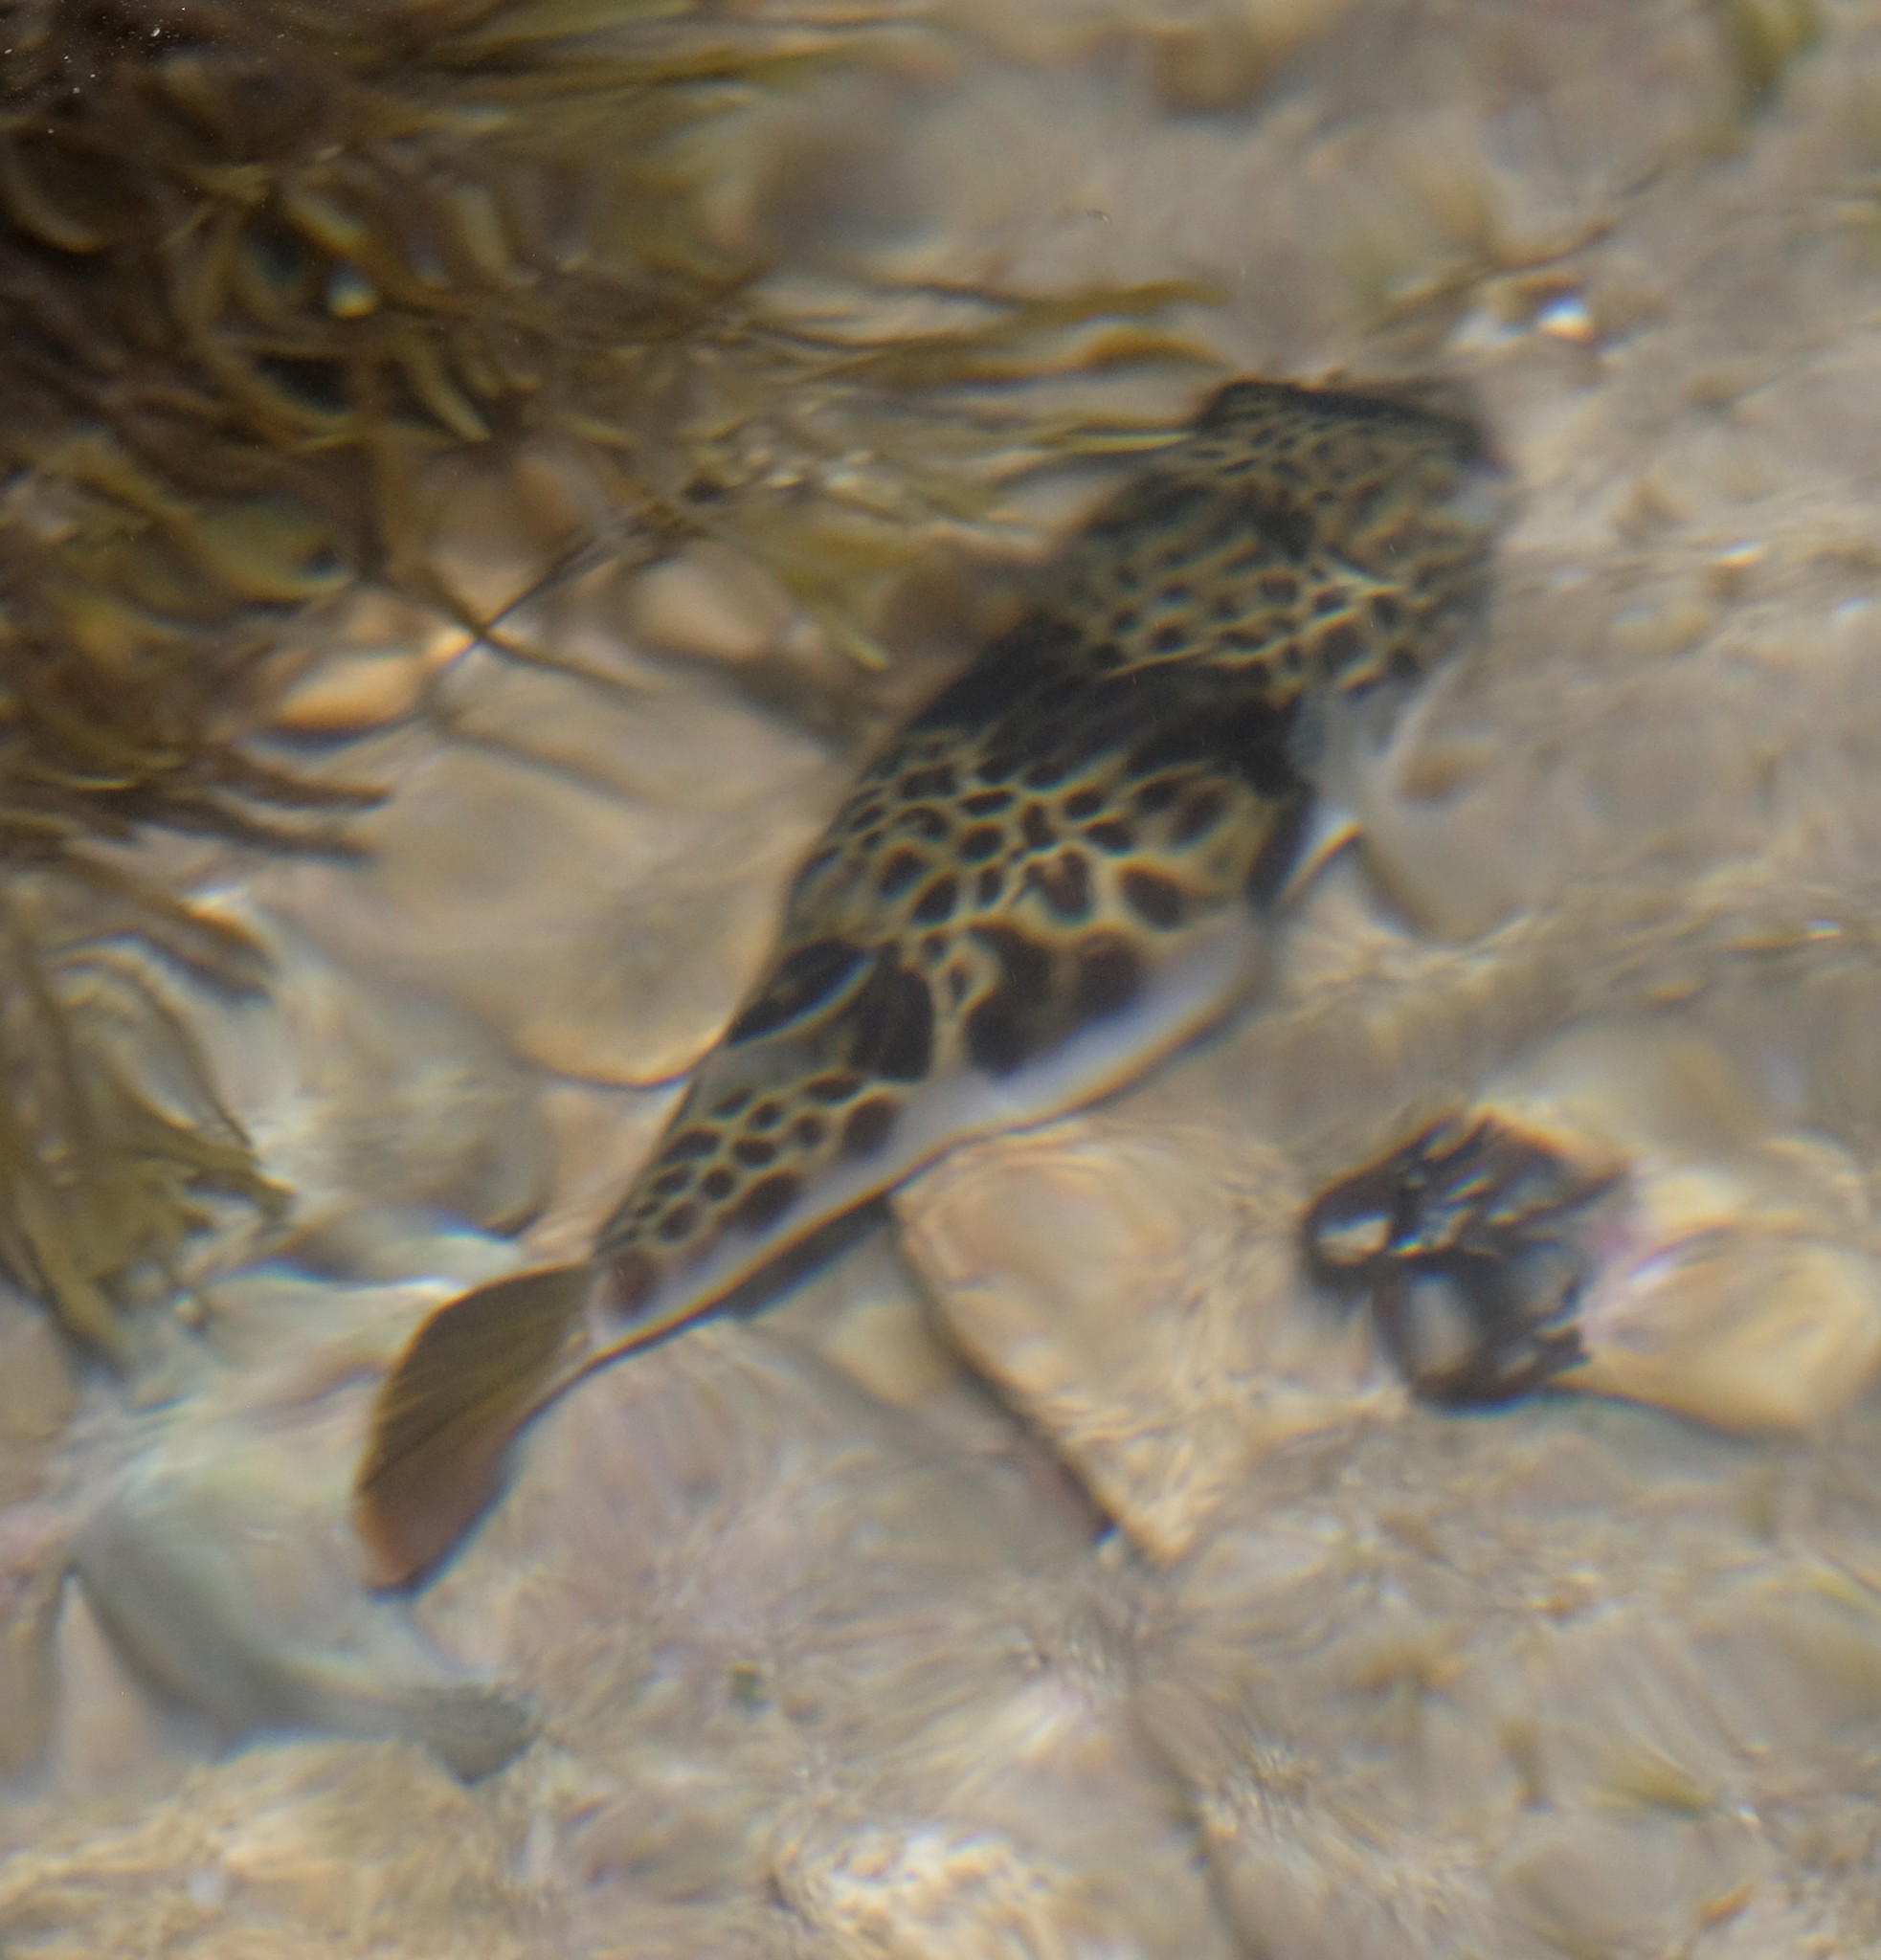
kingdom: Animalia
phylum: Chordata
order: Tetraodontiformes
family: Tetraodontidae
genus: Tetractenos
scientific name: Tetractenos glaber
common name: Smooth toadfish
